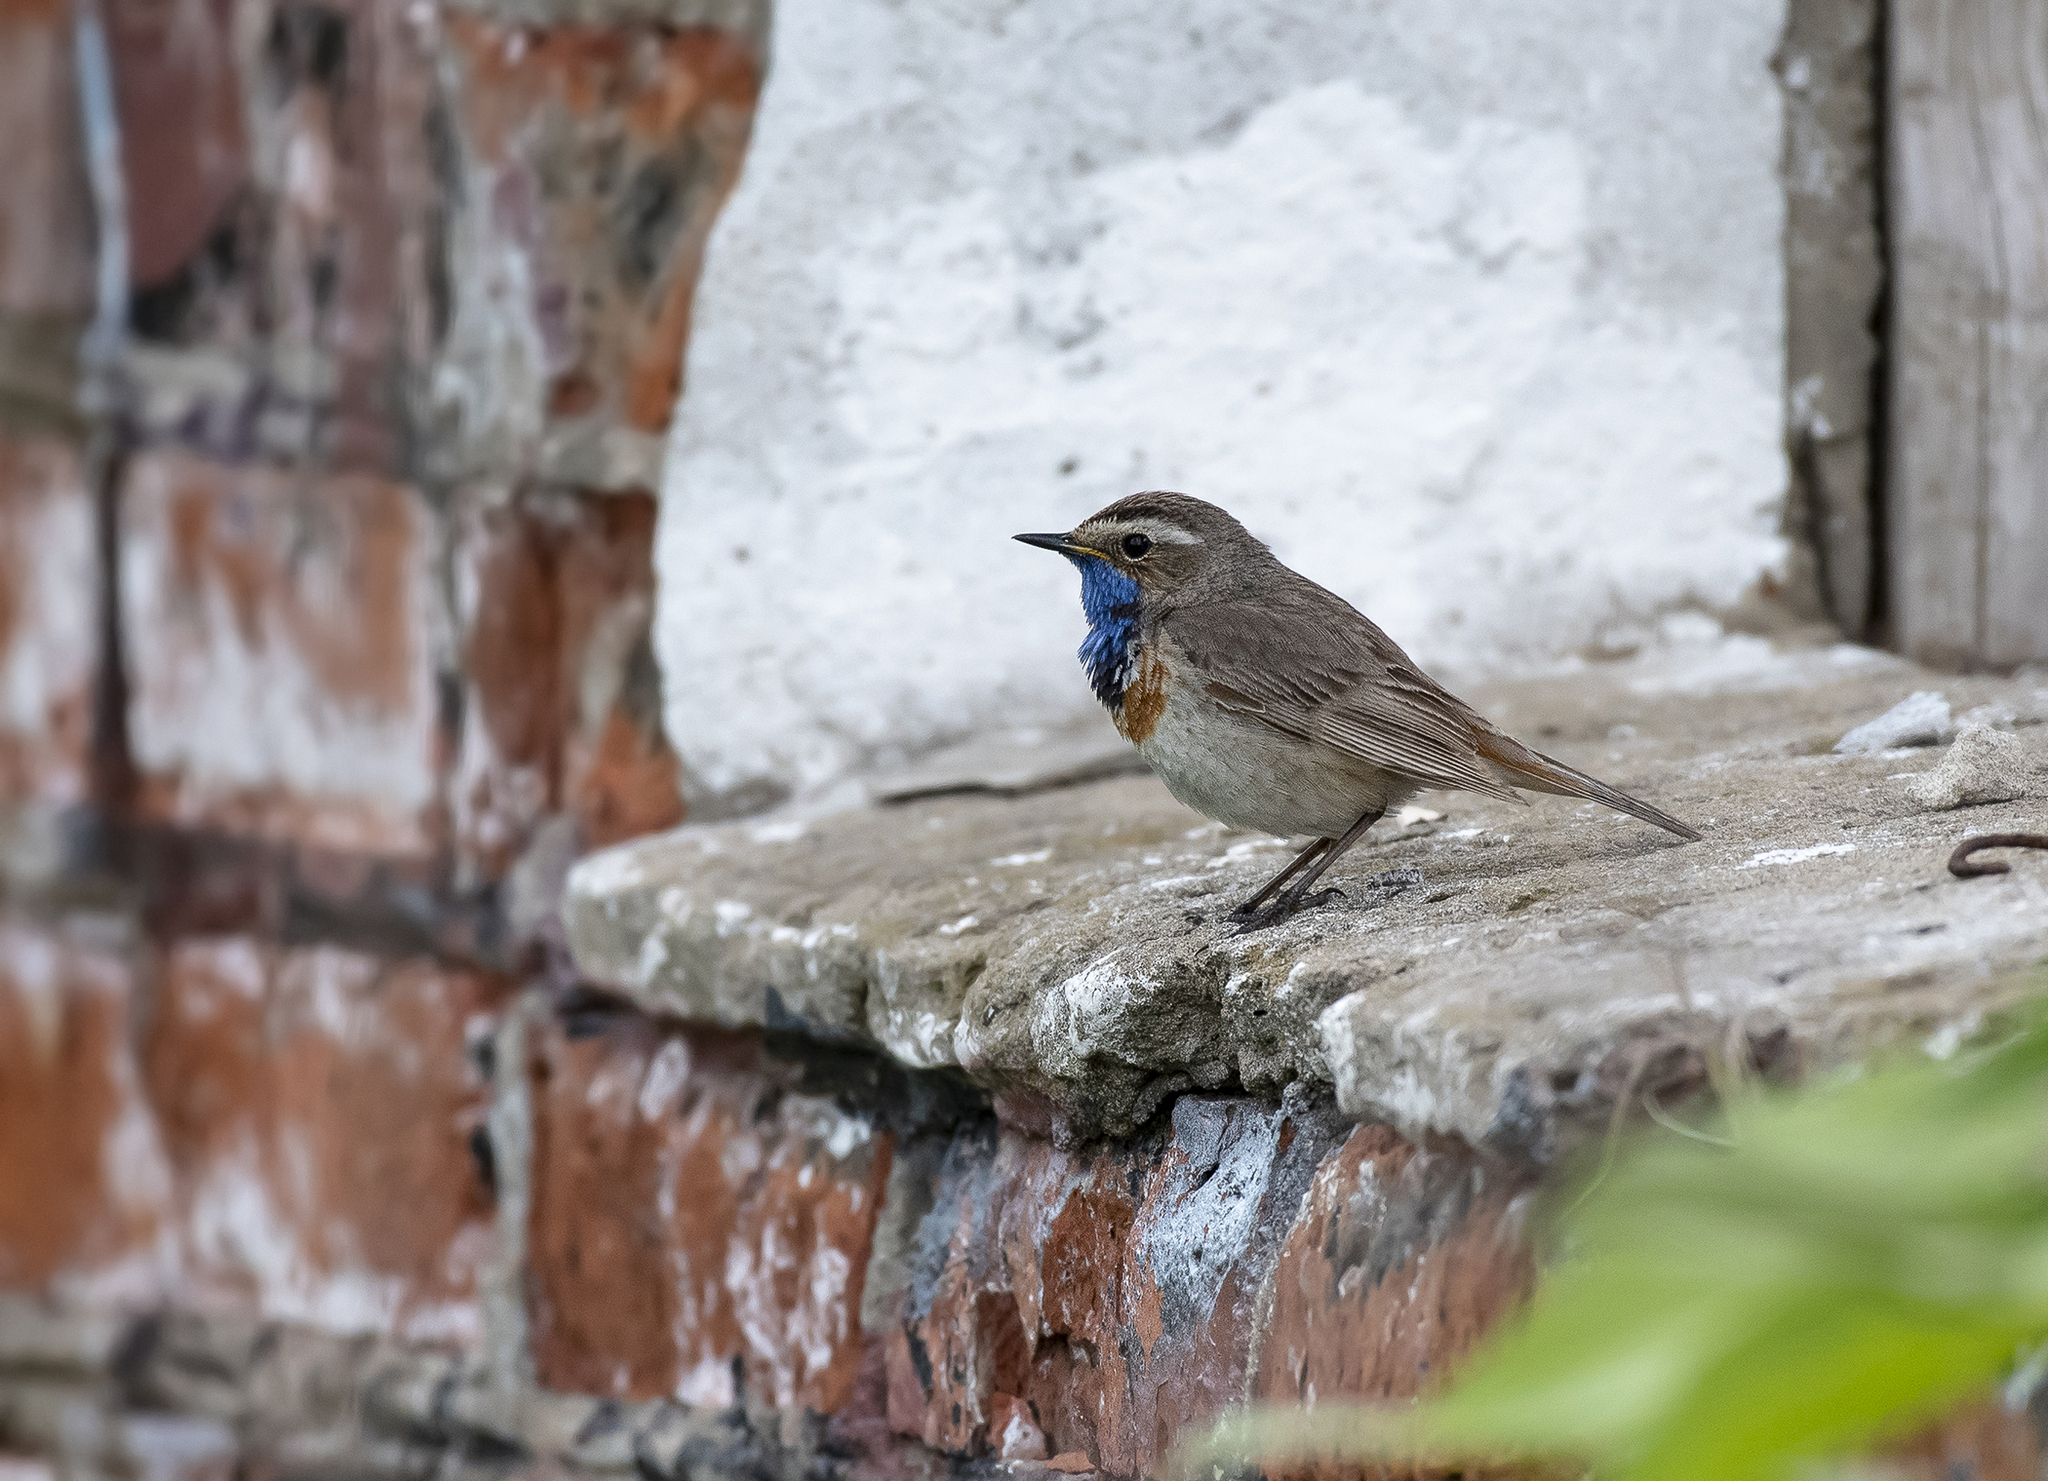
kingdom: Animalia
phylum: Chordata
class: Aves
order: Passeriformes
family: Muscicapidae
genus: Luscinia
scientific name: Luscinia svecica
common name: Bluethroat
